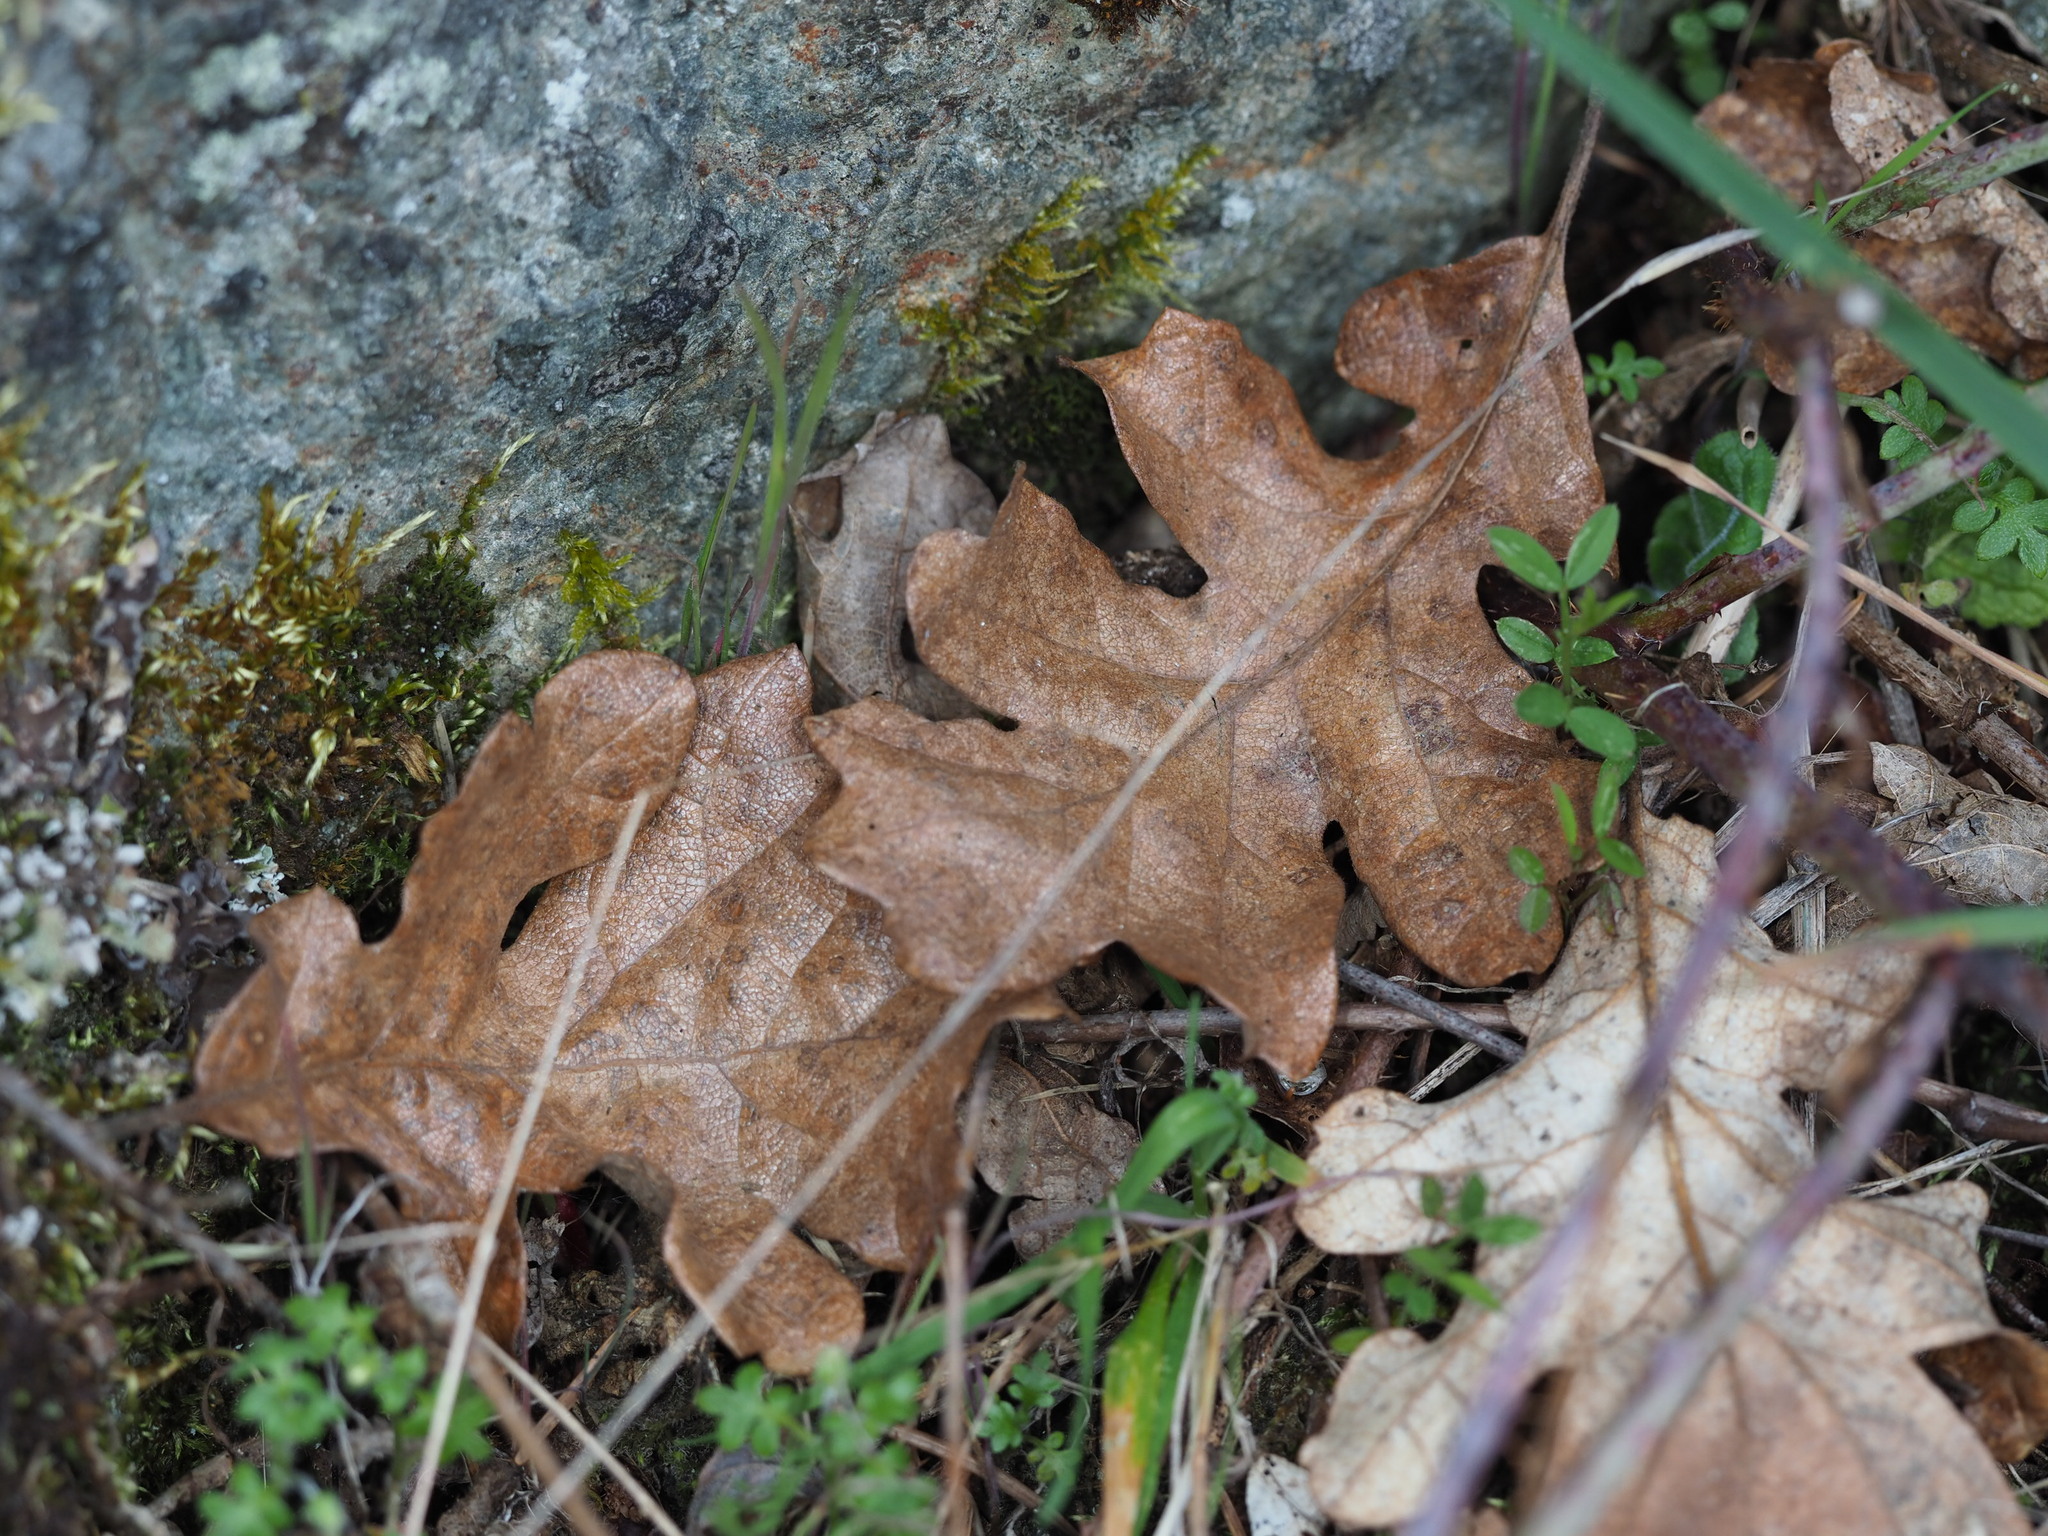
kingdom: Plantae
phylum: Tracheophyta
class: Magnoliopsida
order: Fagales
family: Fagaceae
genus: Quercus
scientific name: Quercus garryana
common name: Garry oak
